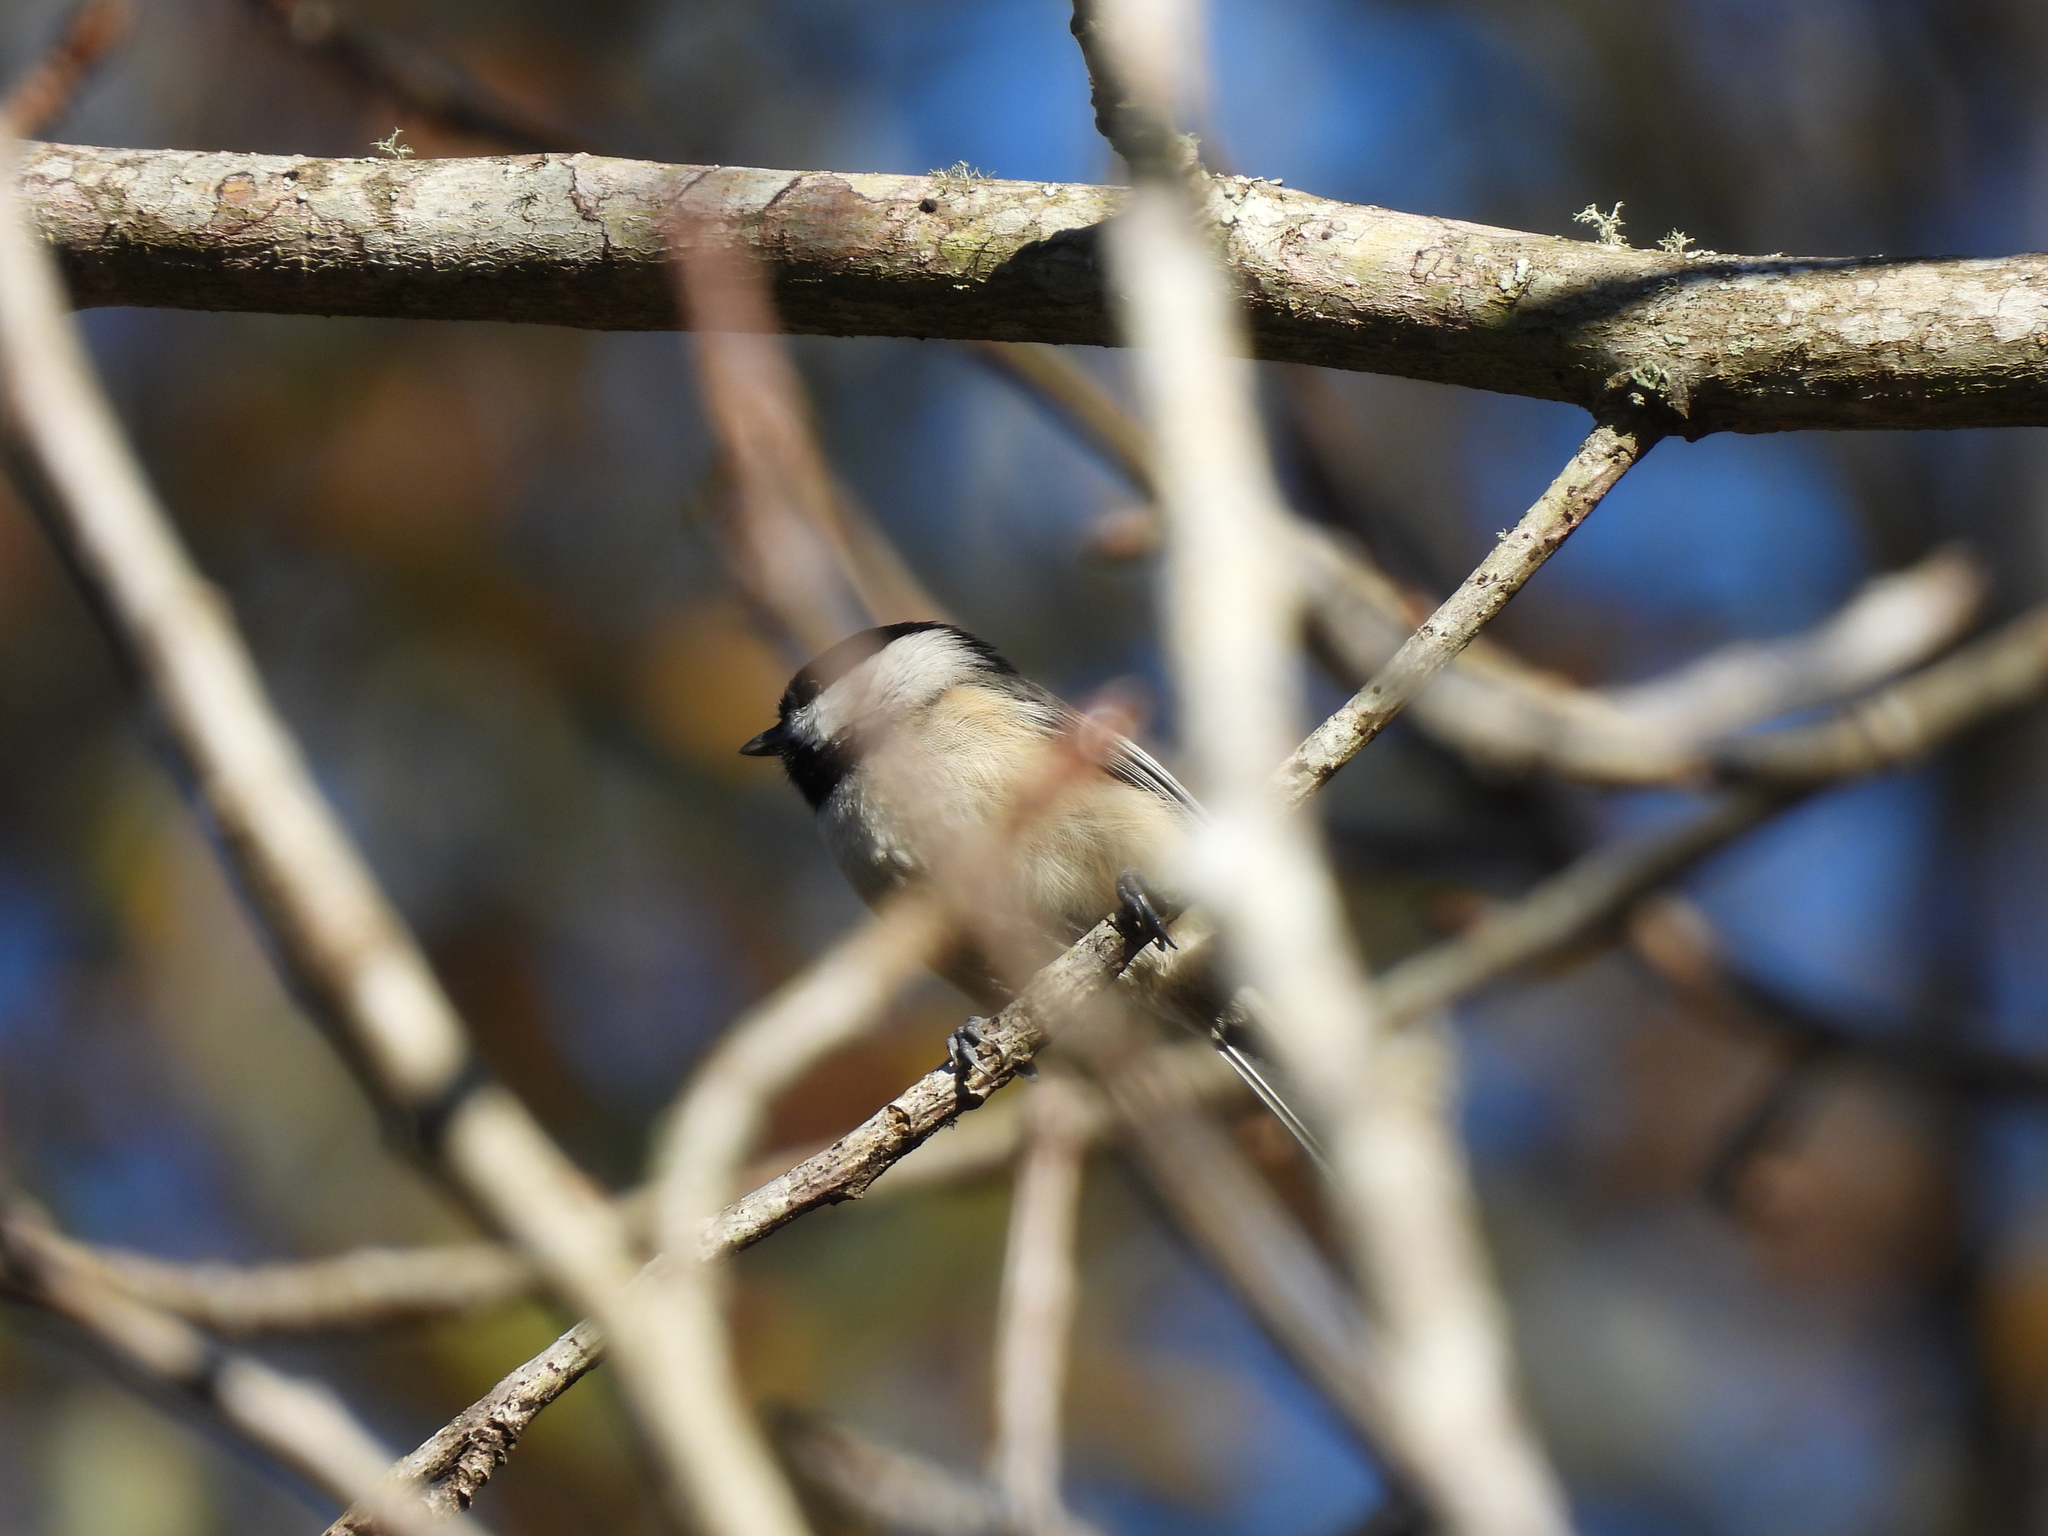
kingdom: Animalia
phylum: Chordata
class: Aves
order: Passeriformes
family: Paridae
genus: Poecile
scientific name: Poecile carolinensis
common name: Carolina chickadee
